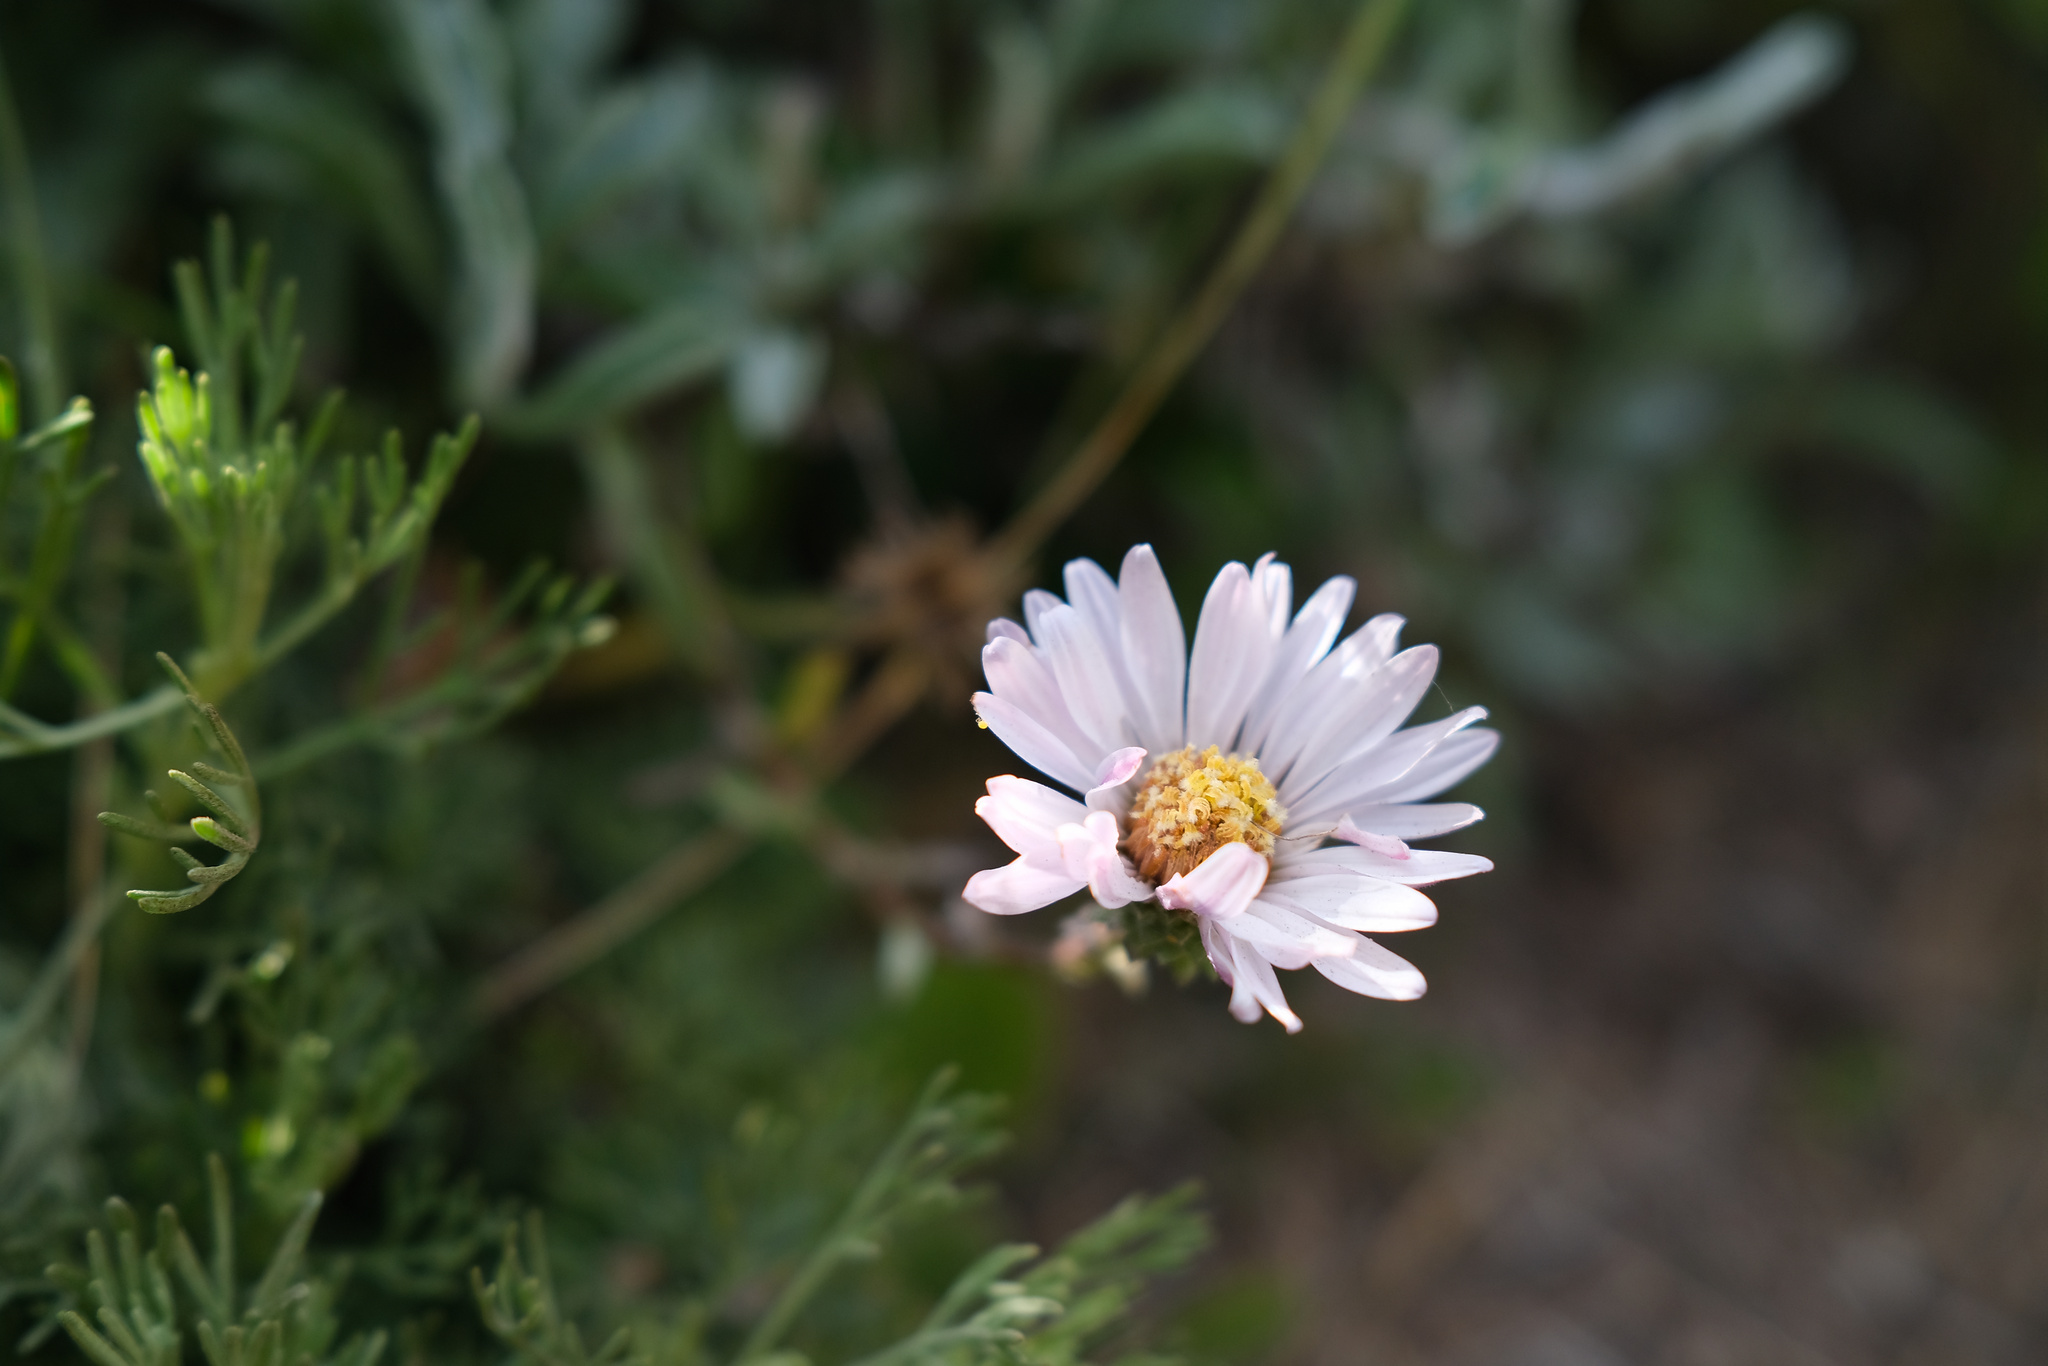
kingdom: Plantae
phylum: Tracheophyta
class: Magnoliopsida
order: Asterales
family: Asteraceae
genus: Corethrogyne
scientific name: Corethrogyne filaginifolia
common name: Sand-aster
